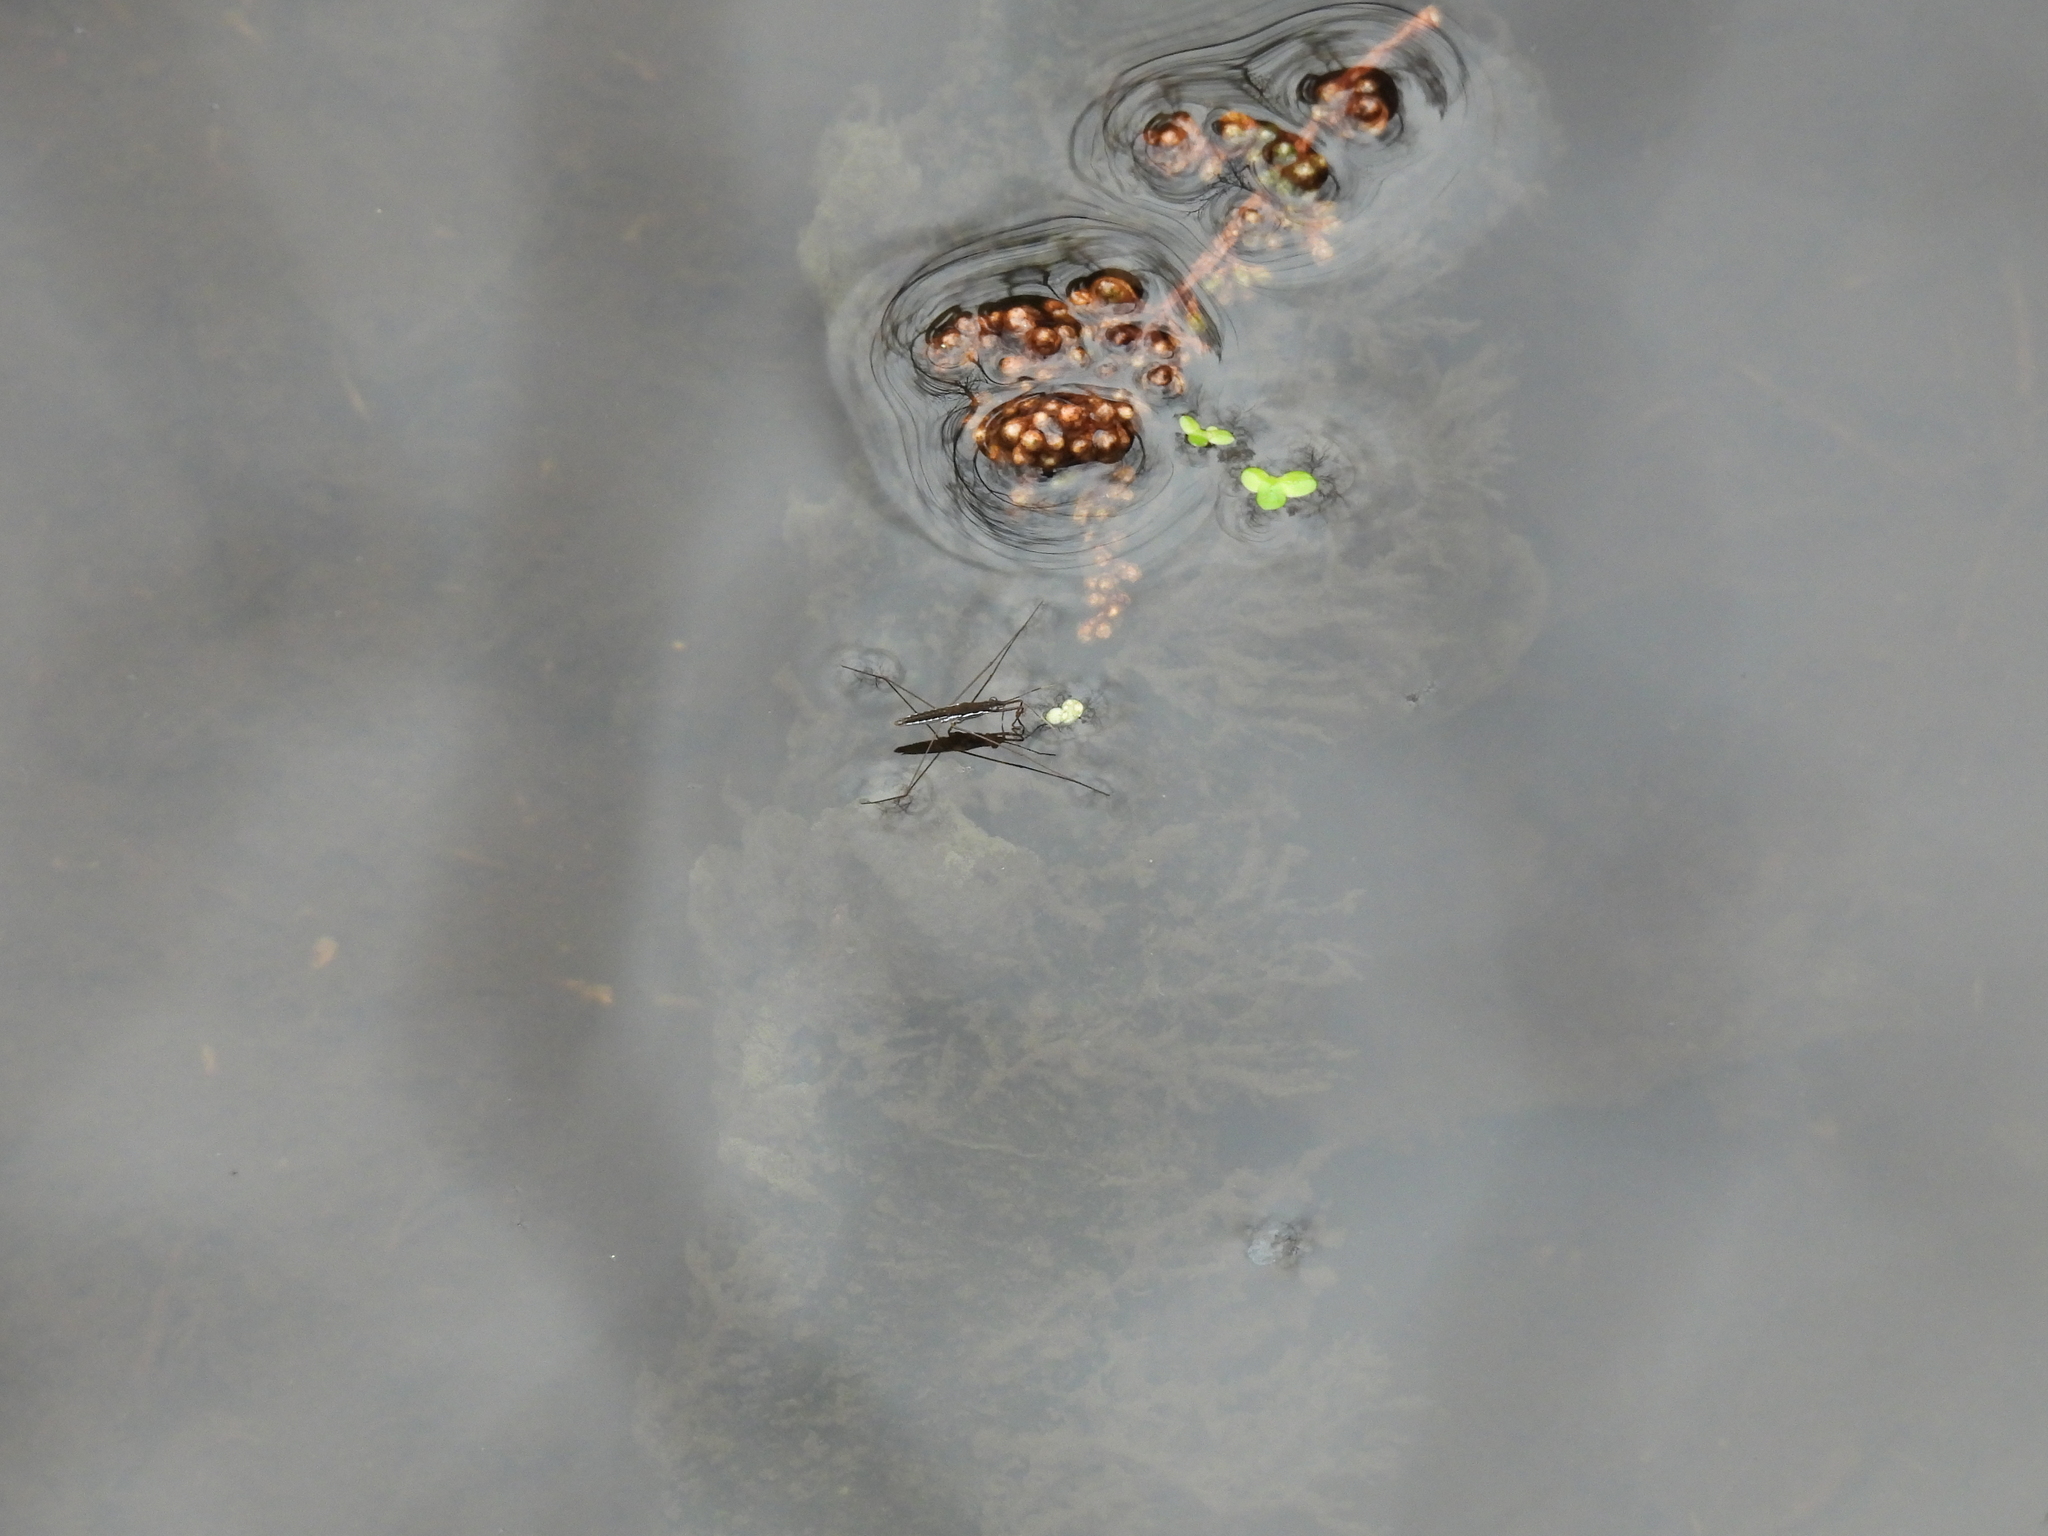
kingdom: Animalia
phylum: Arthropoda
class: Insecta
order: Hemiptera
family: Gerridae
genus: Limnoporus
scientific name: Limnoporus canaliculatus
